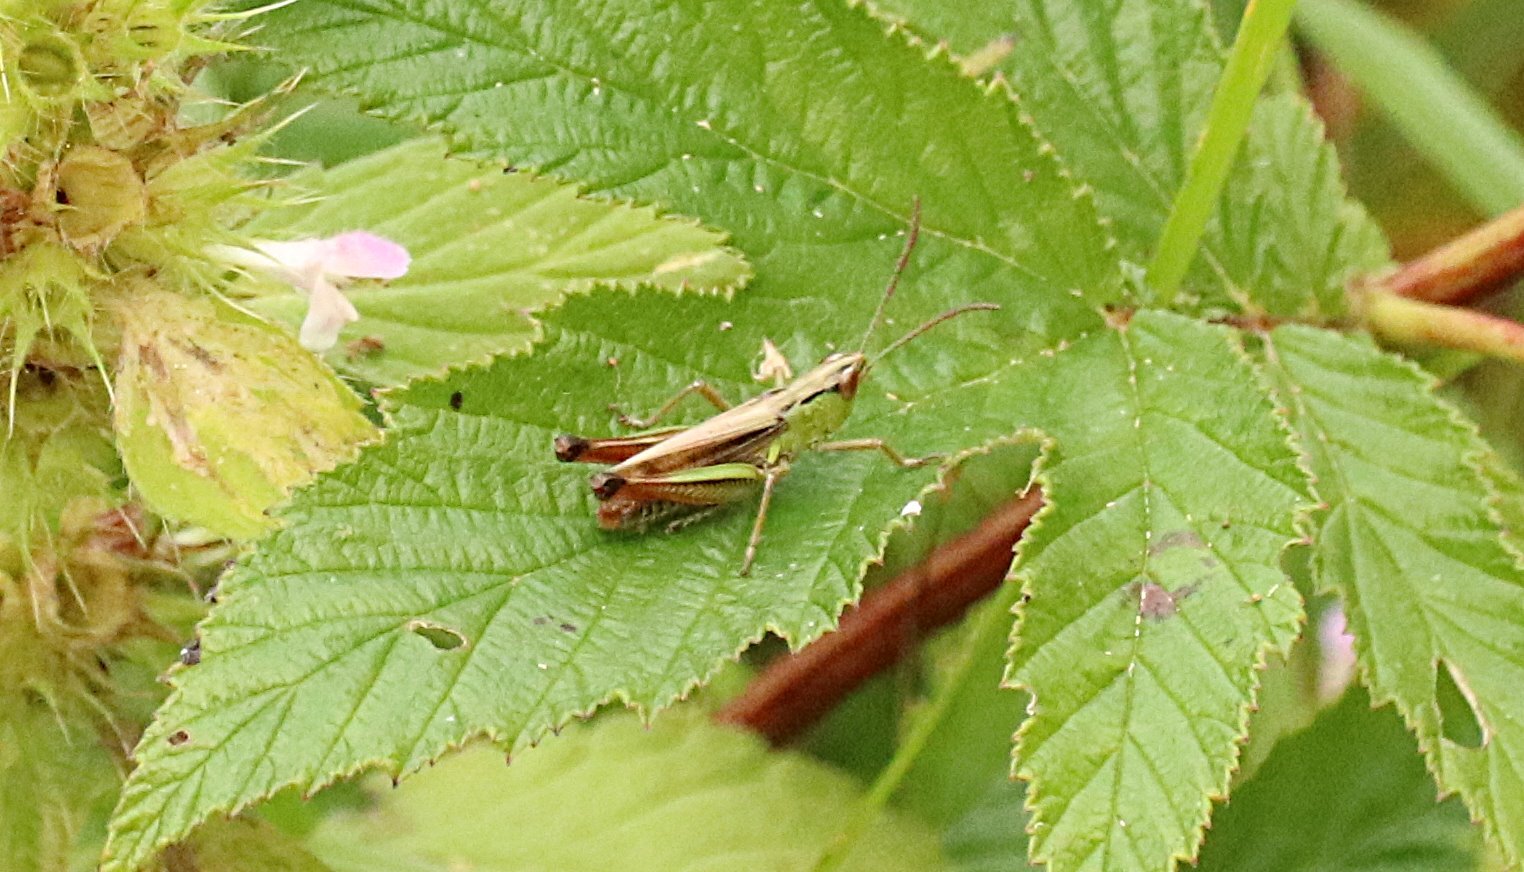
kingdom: Animalia
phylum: Arthropoda
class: Insecta
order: Orthoptera
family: Acrididae
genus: Pseudochorthippus
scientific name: Pseudochorthippus parallelus
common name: Meadow grasshopper
